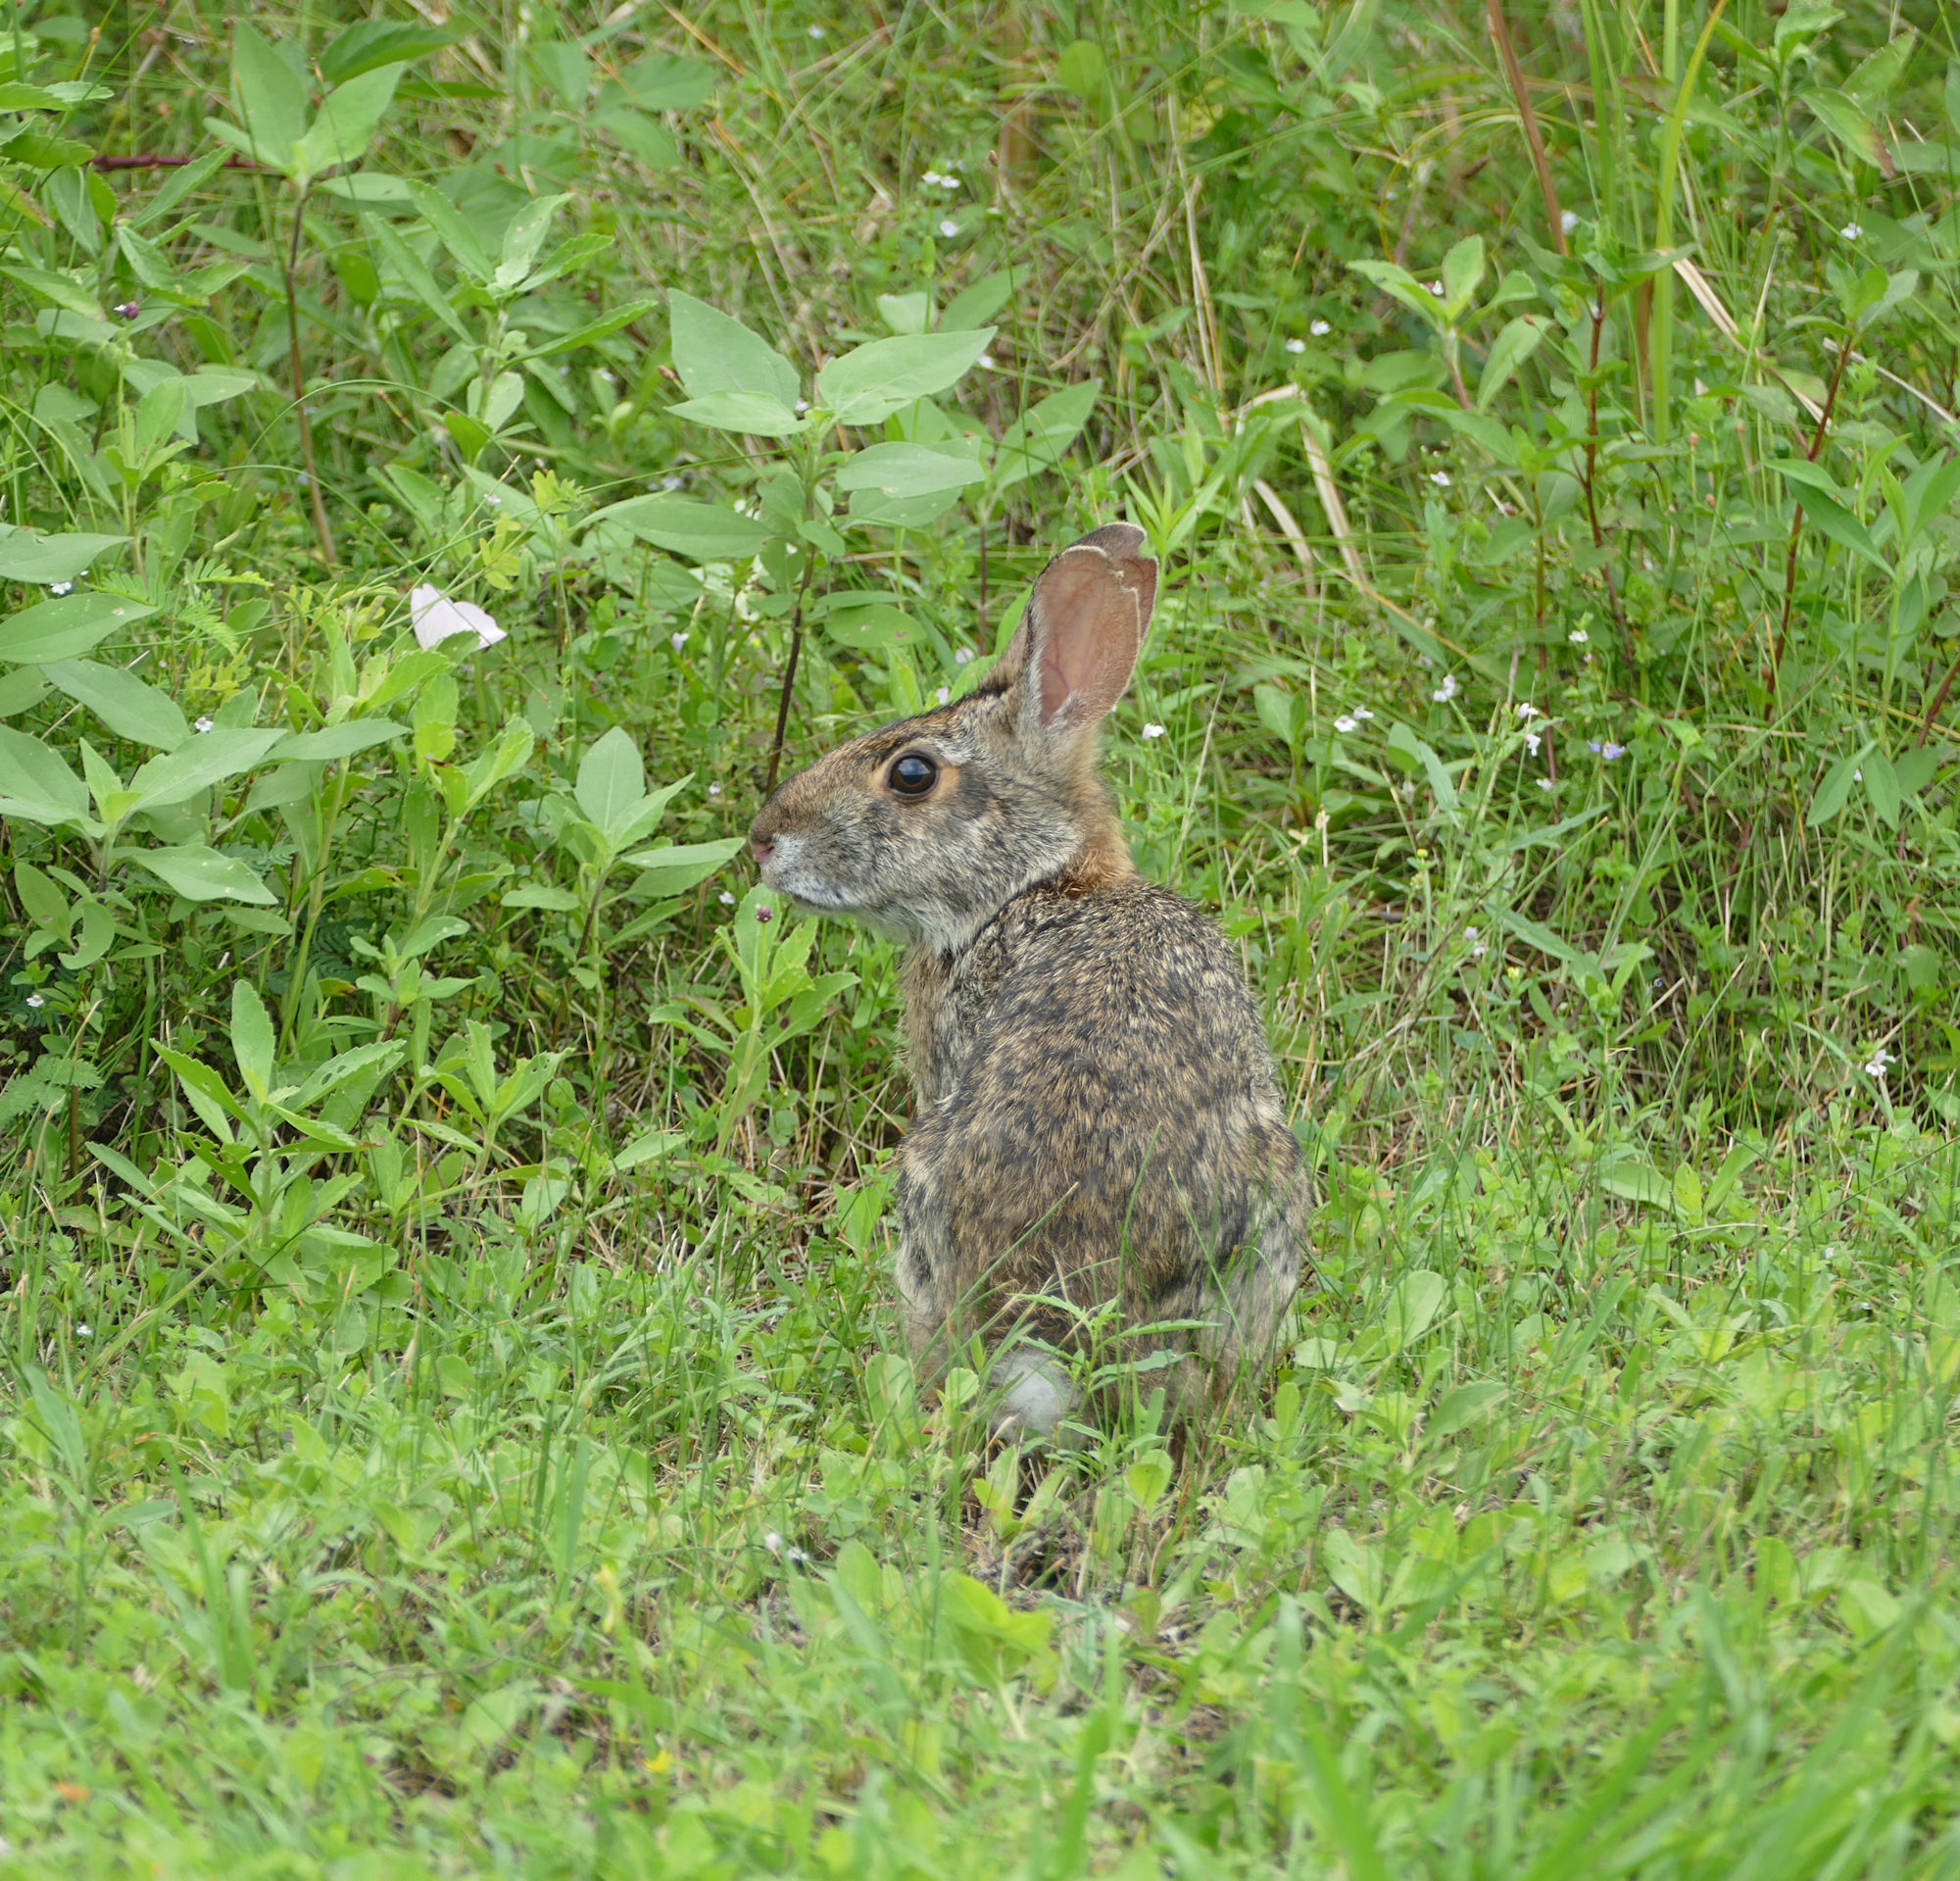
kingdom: Animalia
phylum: Chordata
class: Mammalia
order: Lagomorpha
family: Leporidae
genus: Sylvilagus
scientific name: Sylvilagus floridanus
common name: Eastern cottontail
